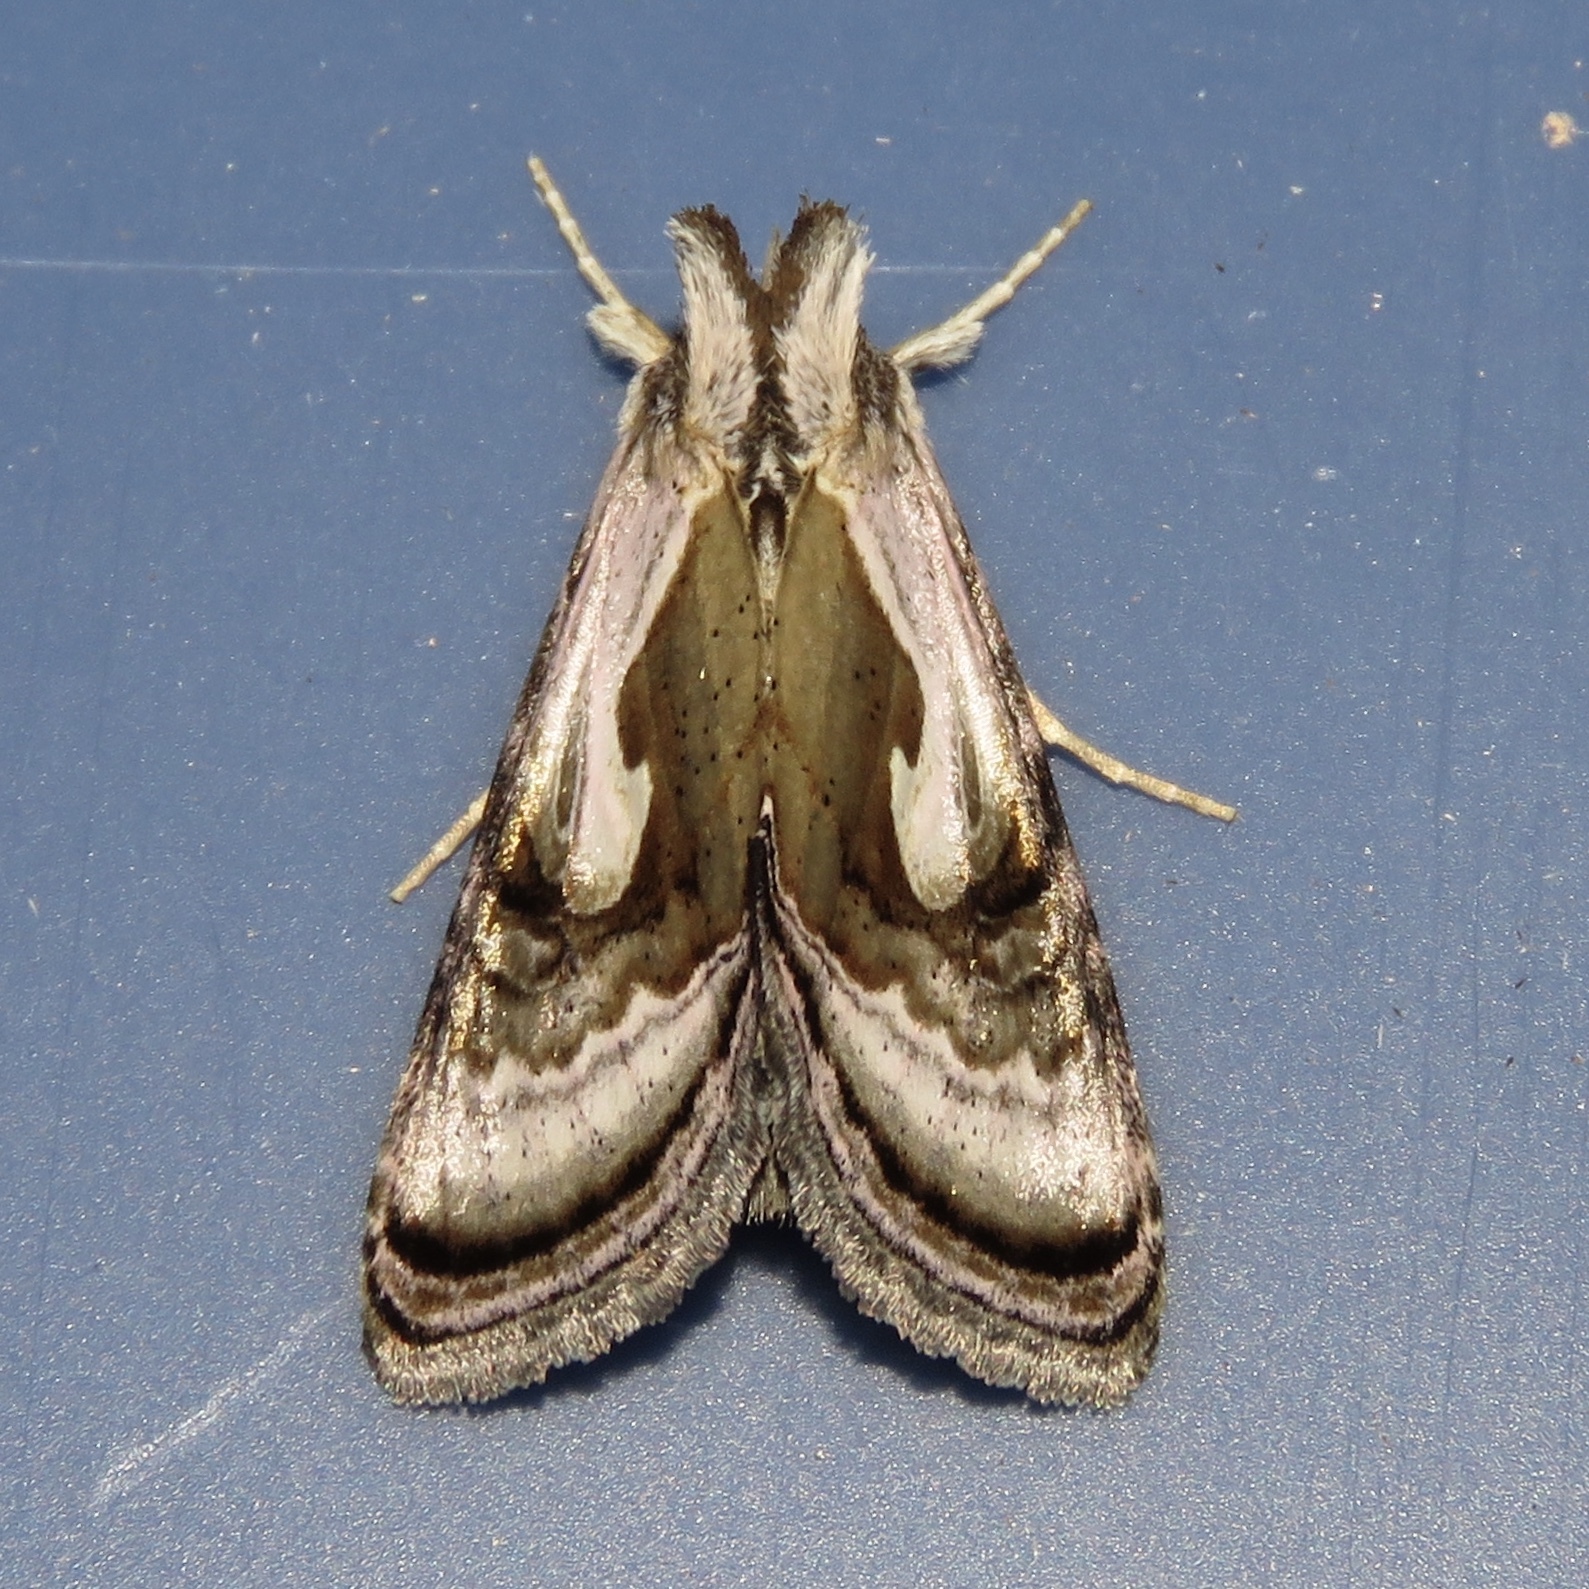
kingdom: Animalia
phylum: Arthropoda
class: Insecta
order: Lepidoptera
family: Noctuidae
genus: Chrysanympha
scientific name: Chrysanympha formosa
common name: Formosa looper moth
